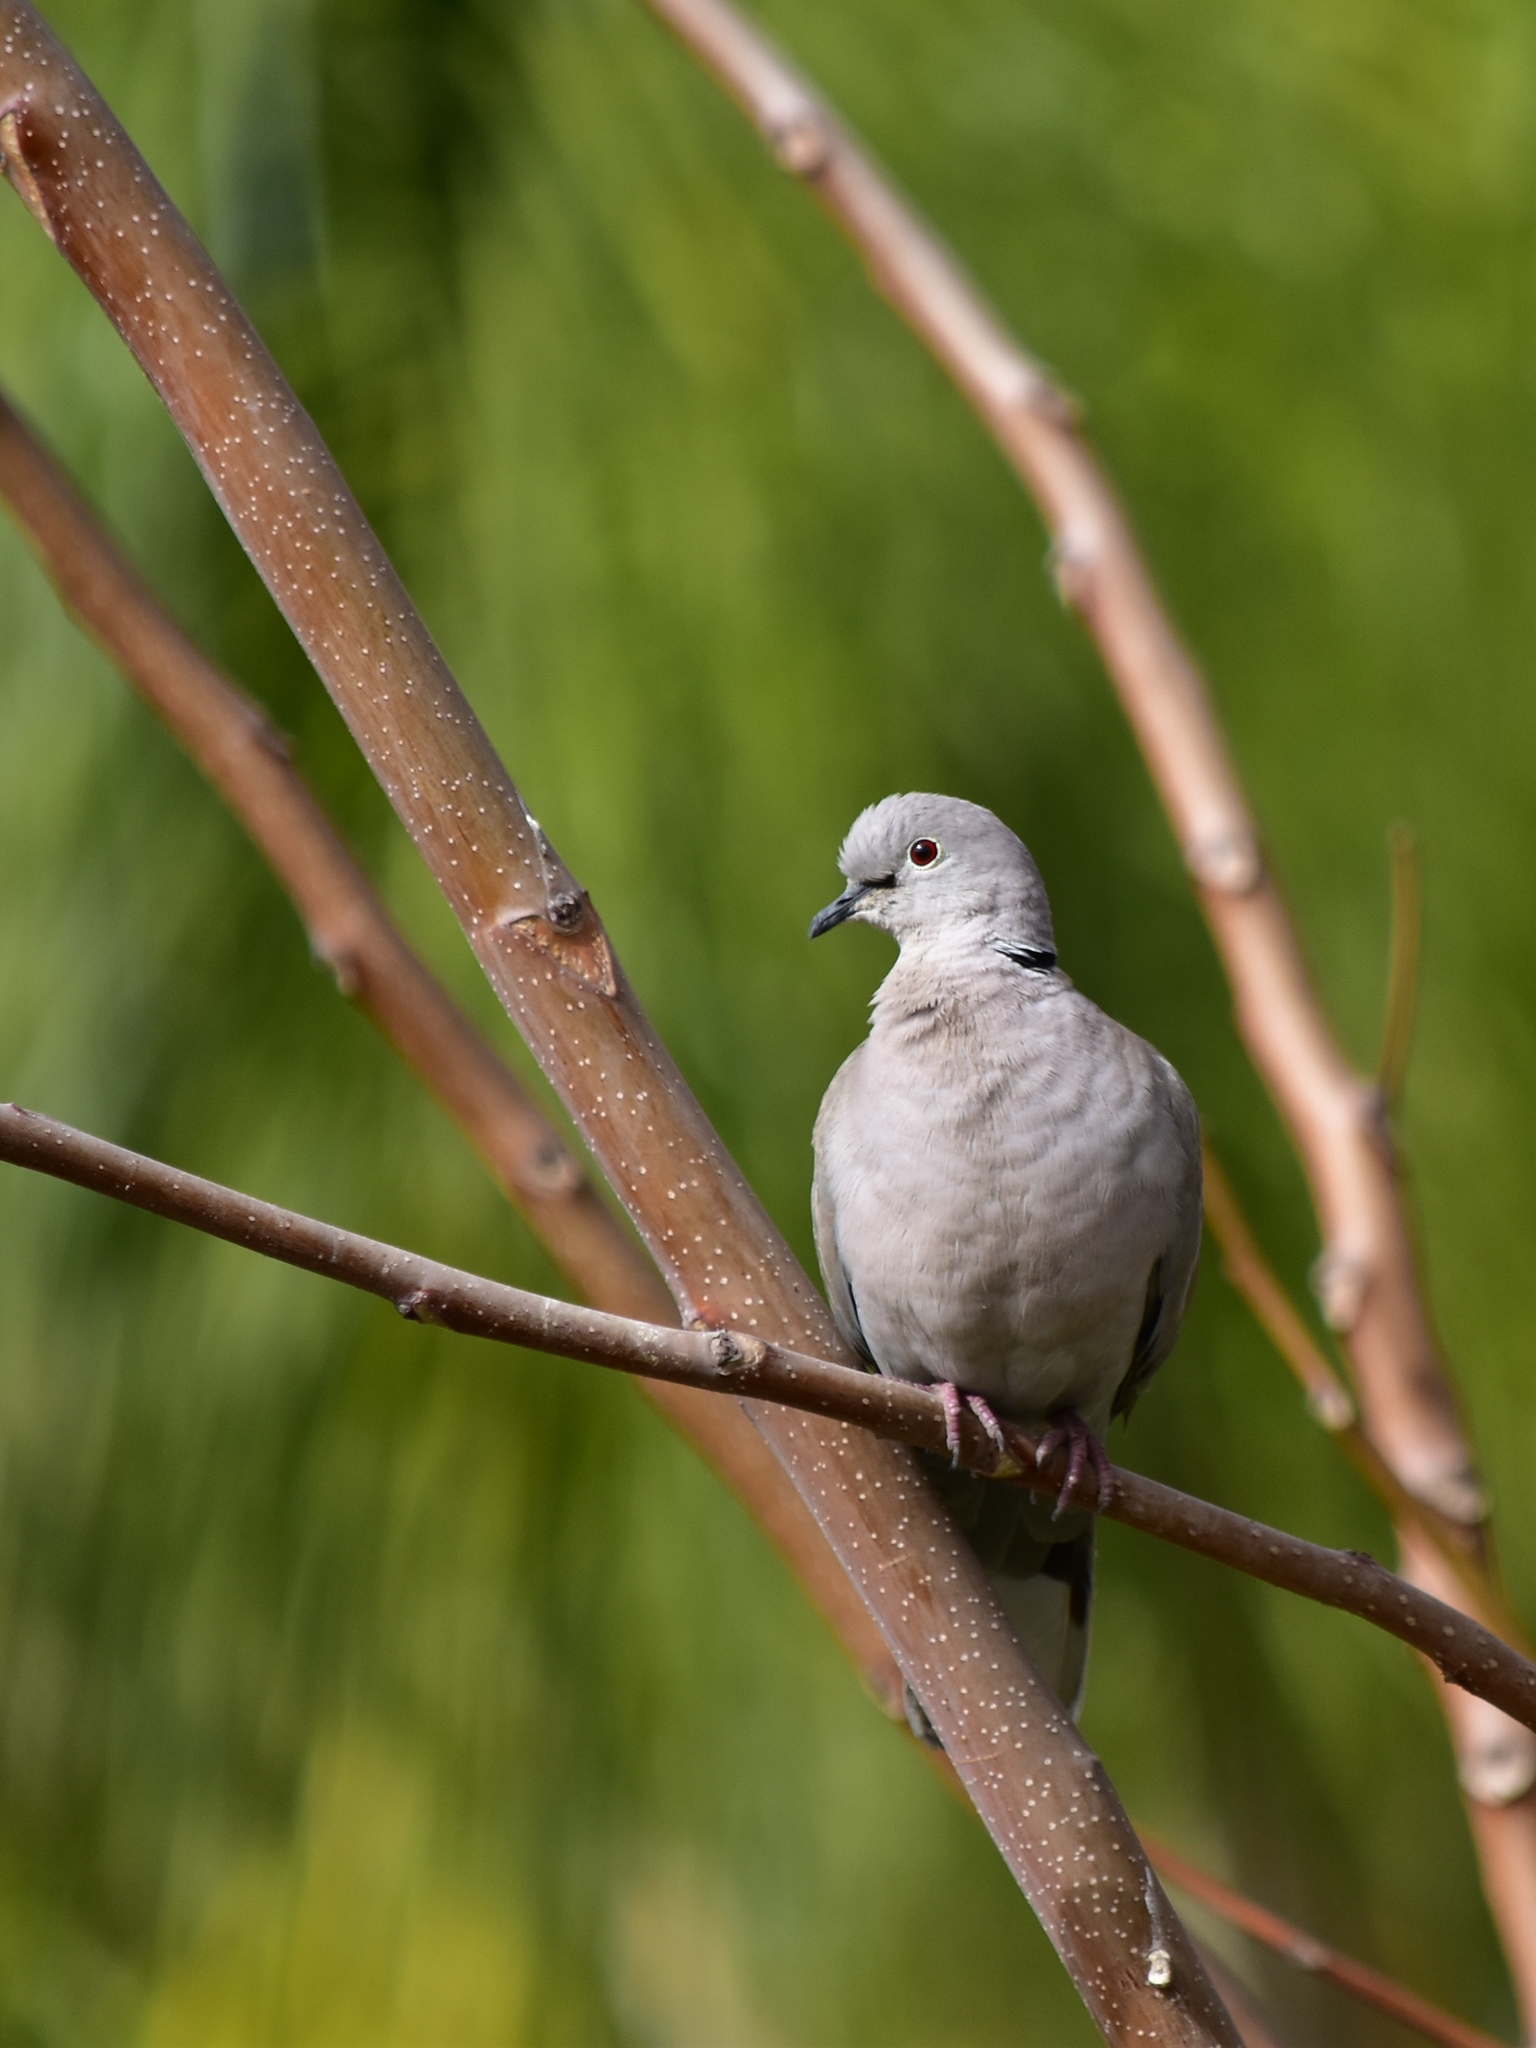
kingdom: Animalia
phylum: Chordata
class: Aves
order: Columbiformes
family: Columbidae
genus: Streptopelia
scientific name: Streptopelia decaocto
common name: Eurasian collared dove
